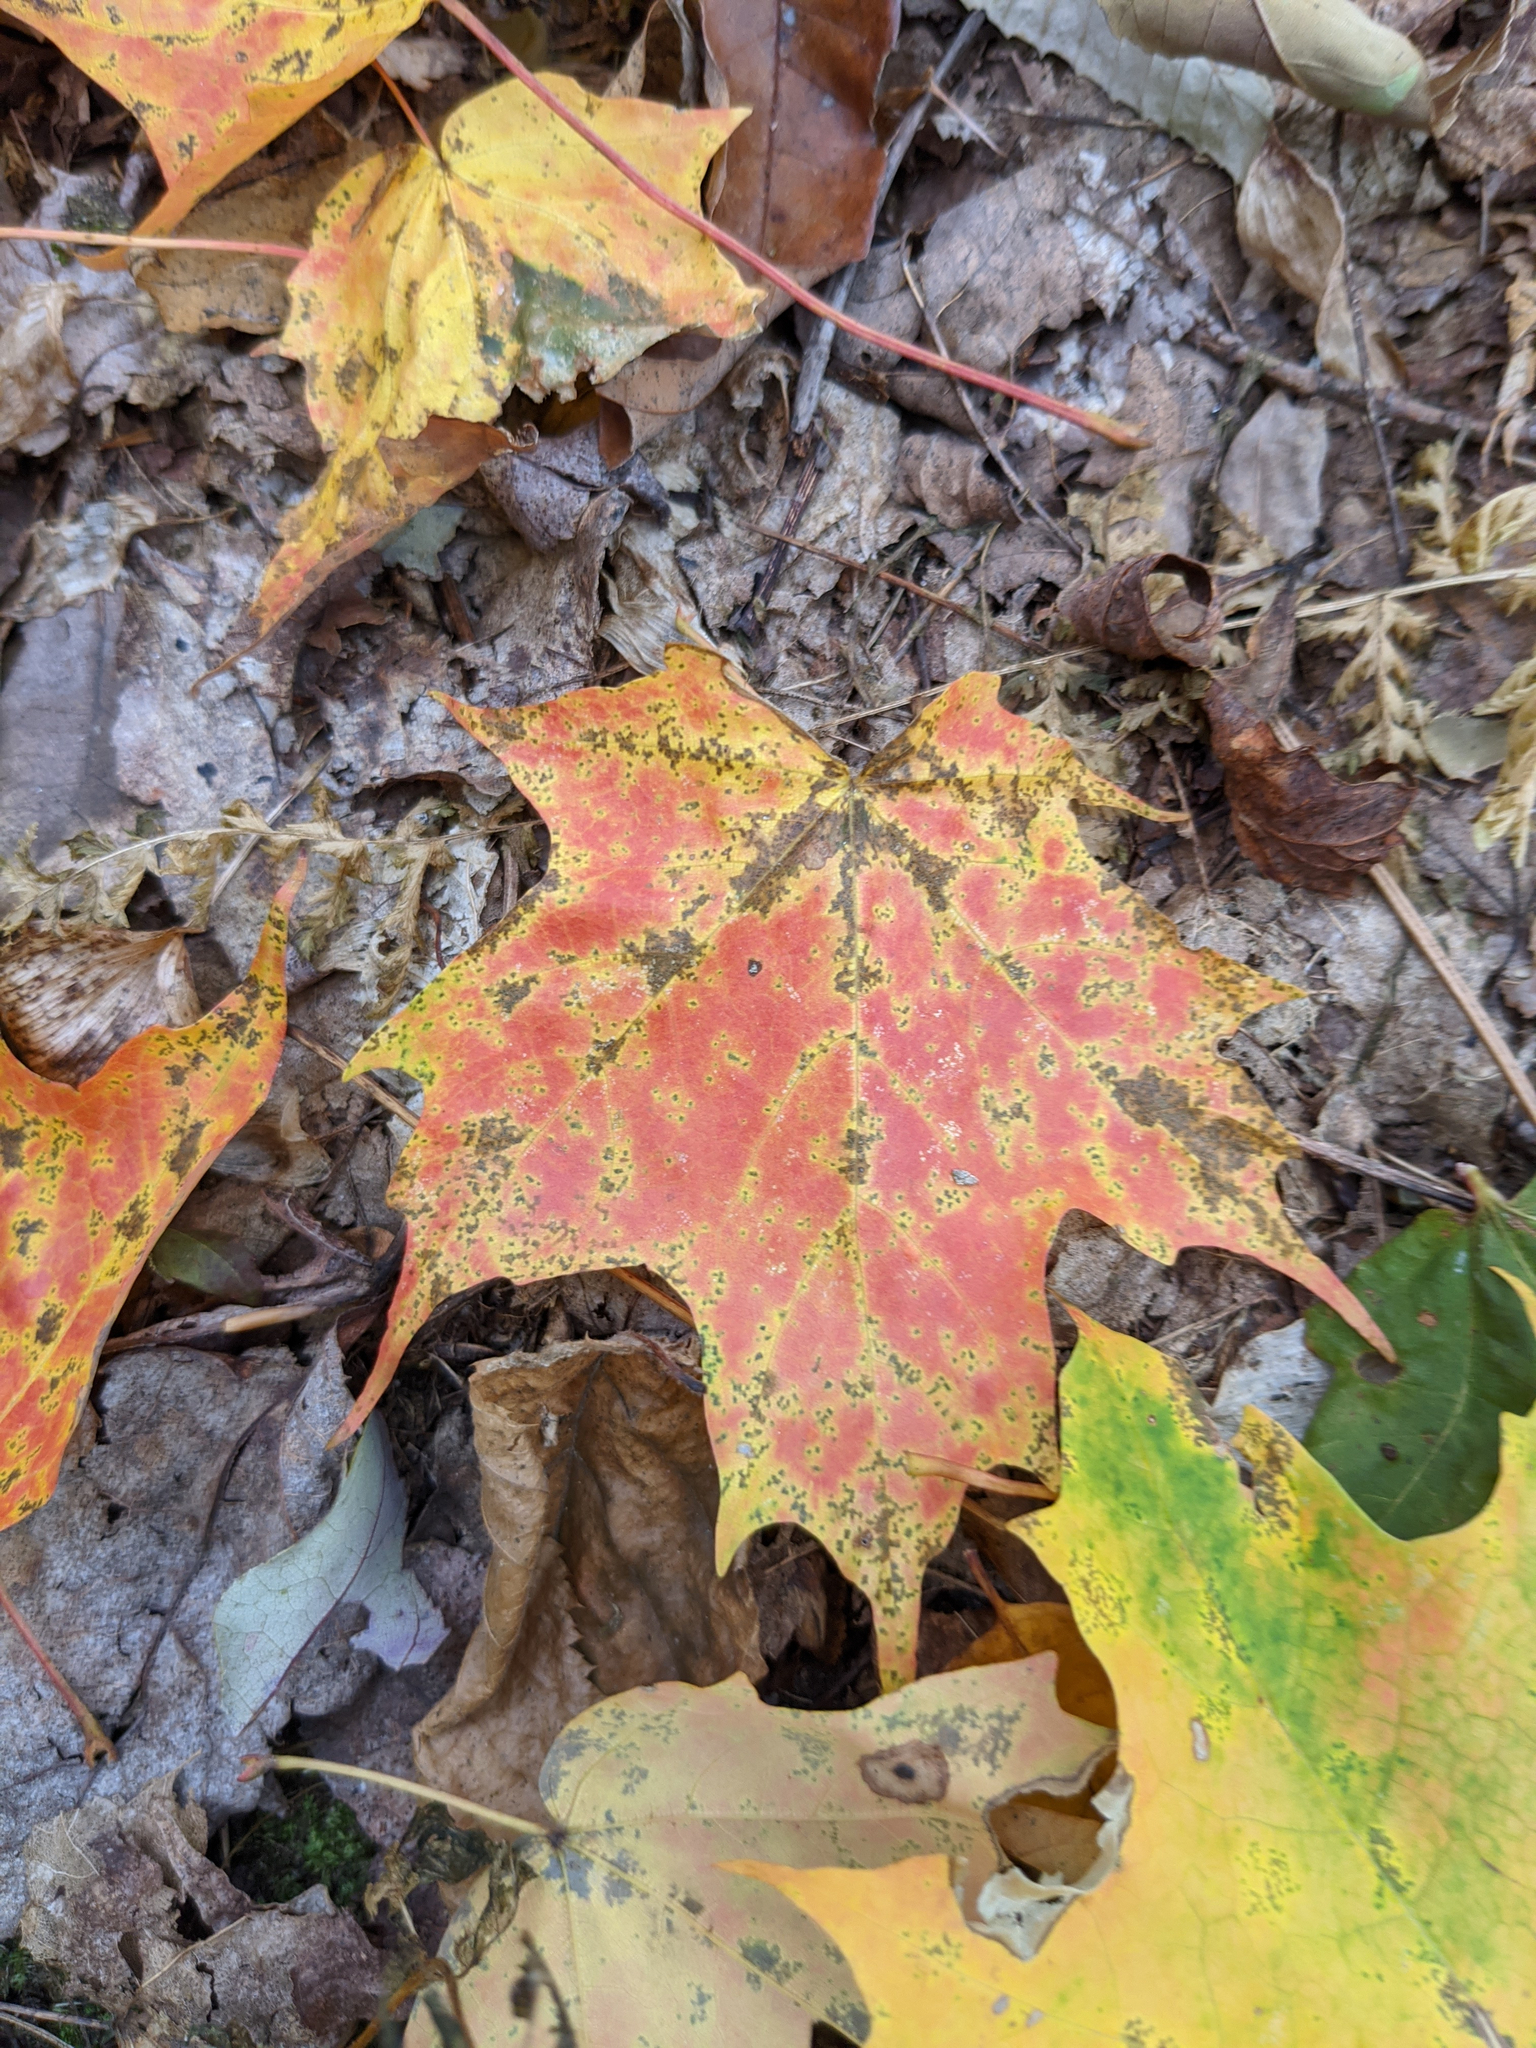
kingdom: Plantae
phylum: Tracheophyta
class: Magnoliopsida
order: Sapindales
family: Sapindaceae
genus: Acer
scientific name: Acer saccharum
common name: Sugar maple
